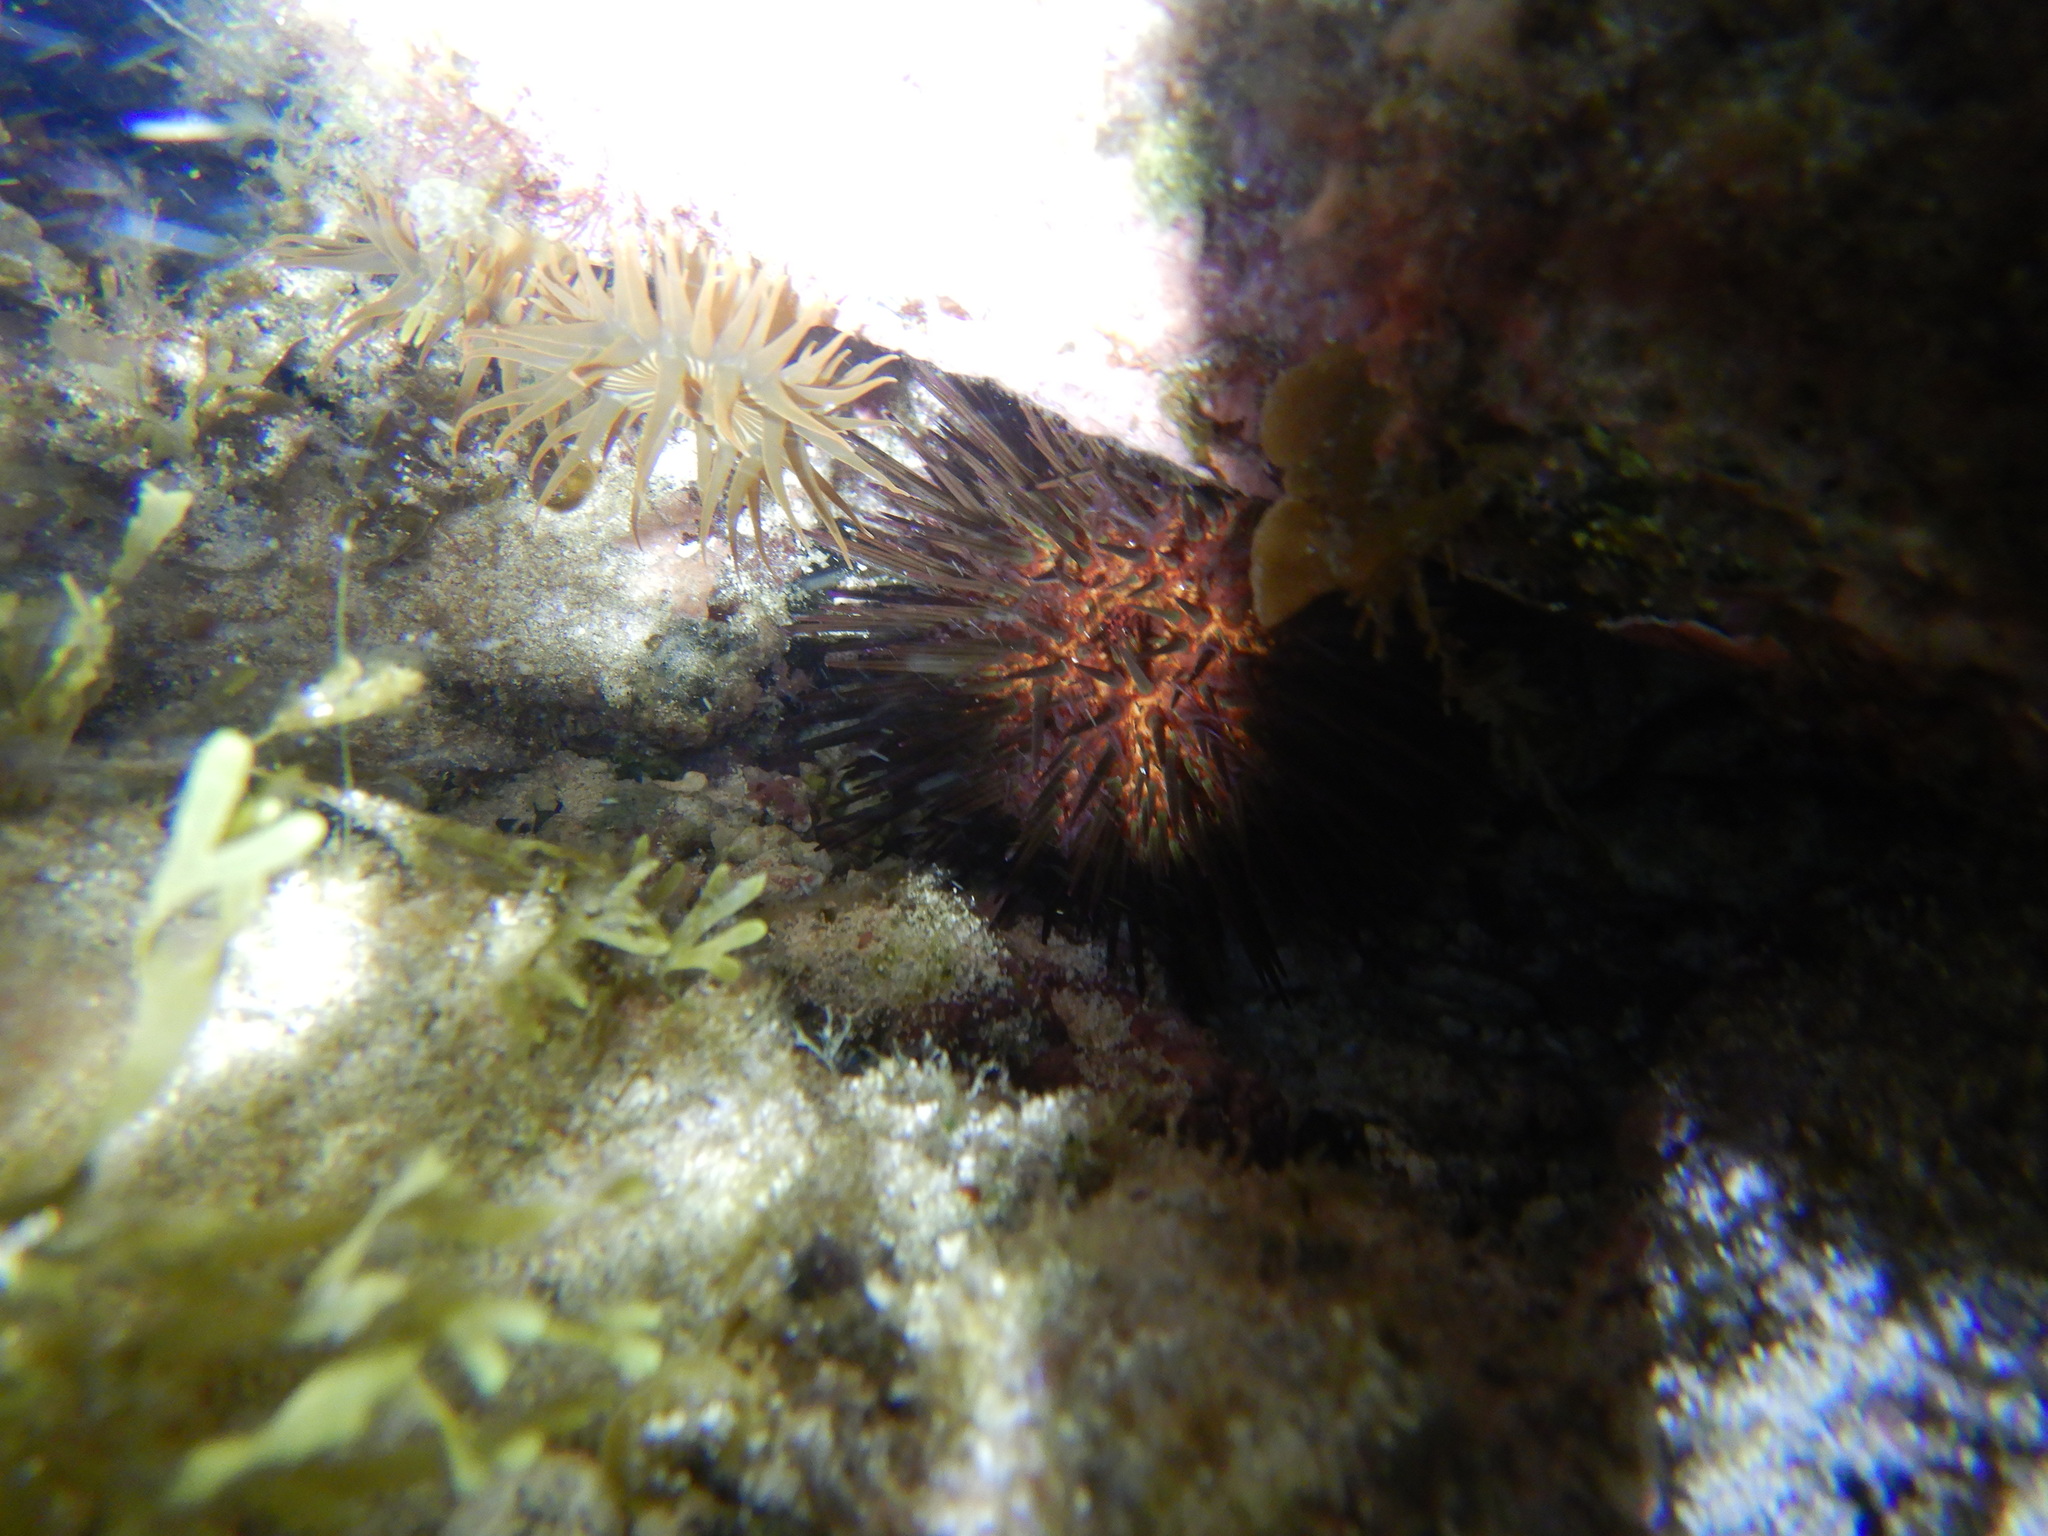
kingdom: Animalia
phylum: Cnidaria
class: Anthozoa
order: Actiniaria
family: Actiniidae
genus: Anemonia
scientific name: Anemonia sargassensis
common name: Sargassum anemone
